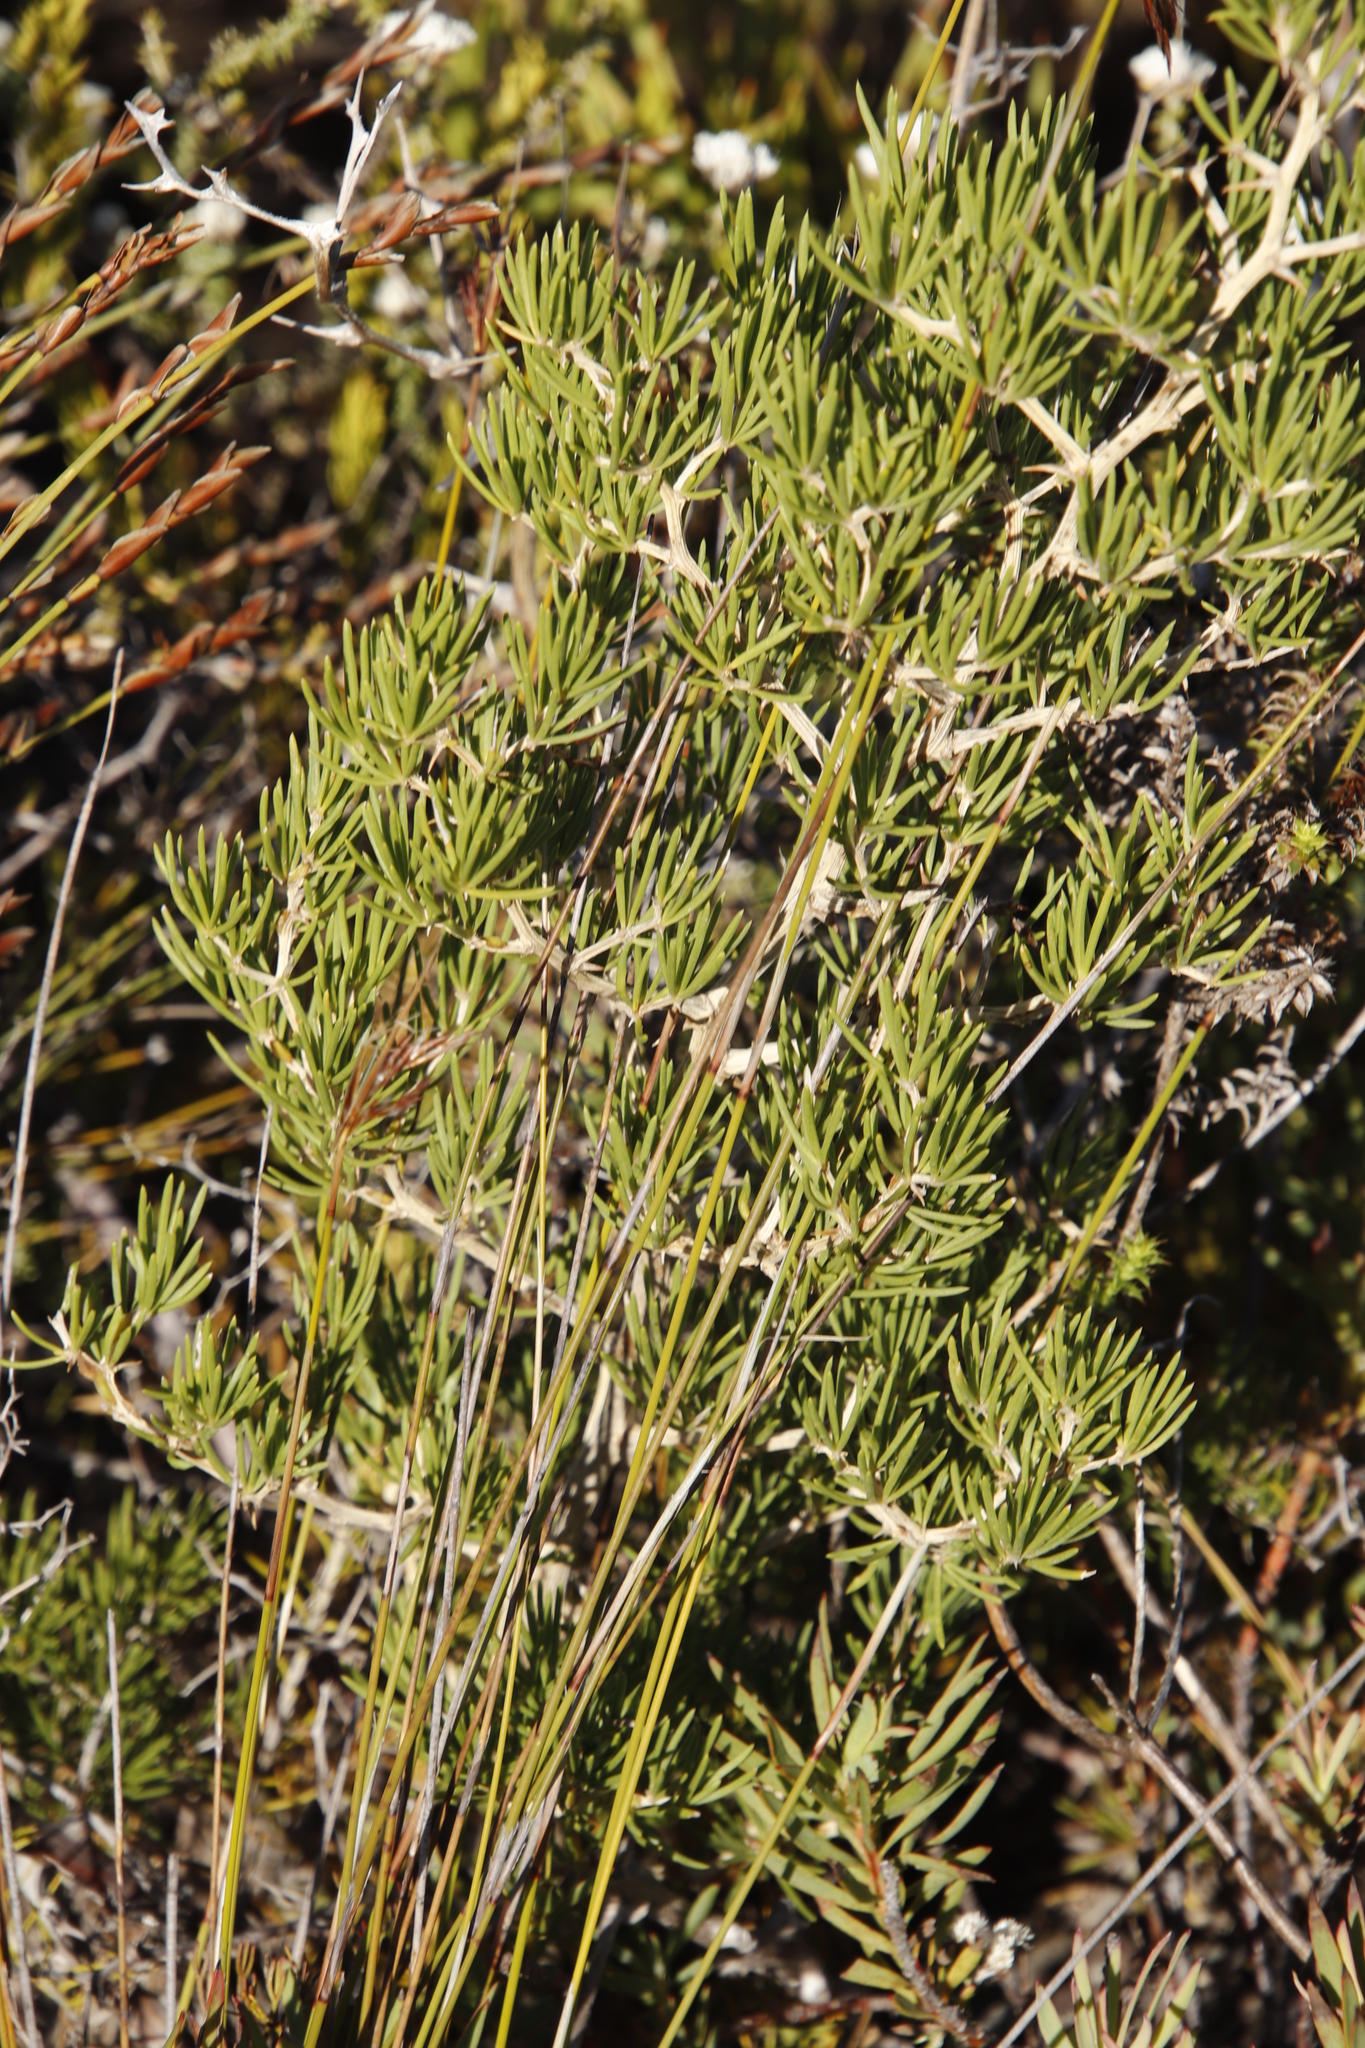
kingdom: Plantae
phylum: Tracheophyta
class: Liliopsida
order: Asparagales
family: Asparagaceae
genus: Asparagus
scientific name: Asparagus lignosus
